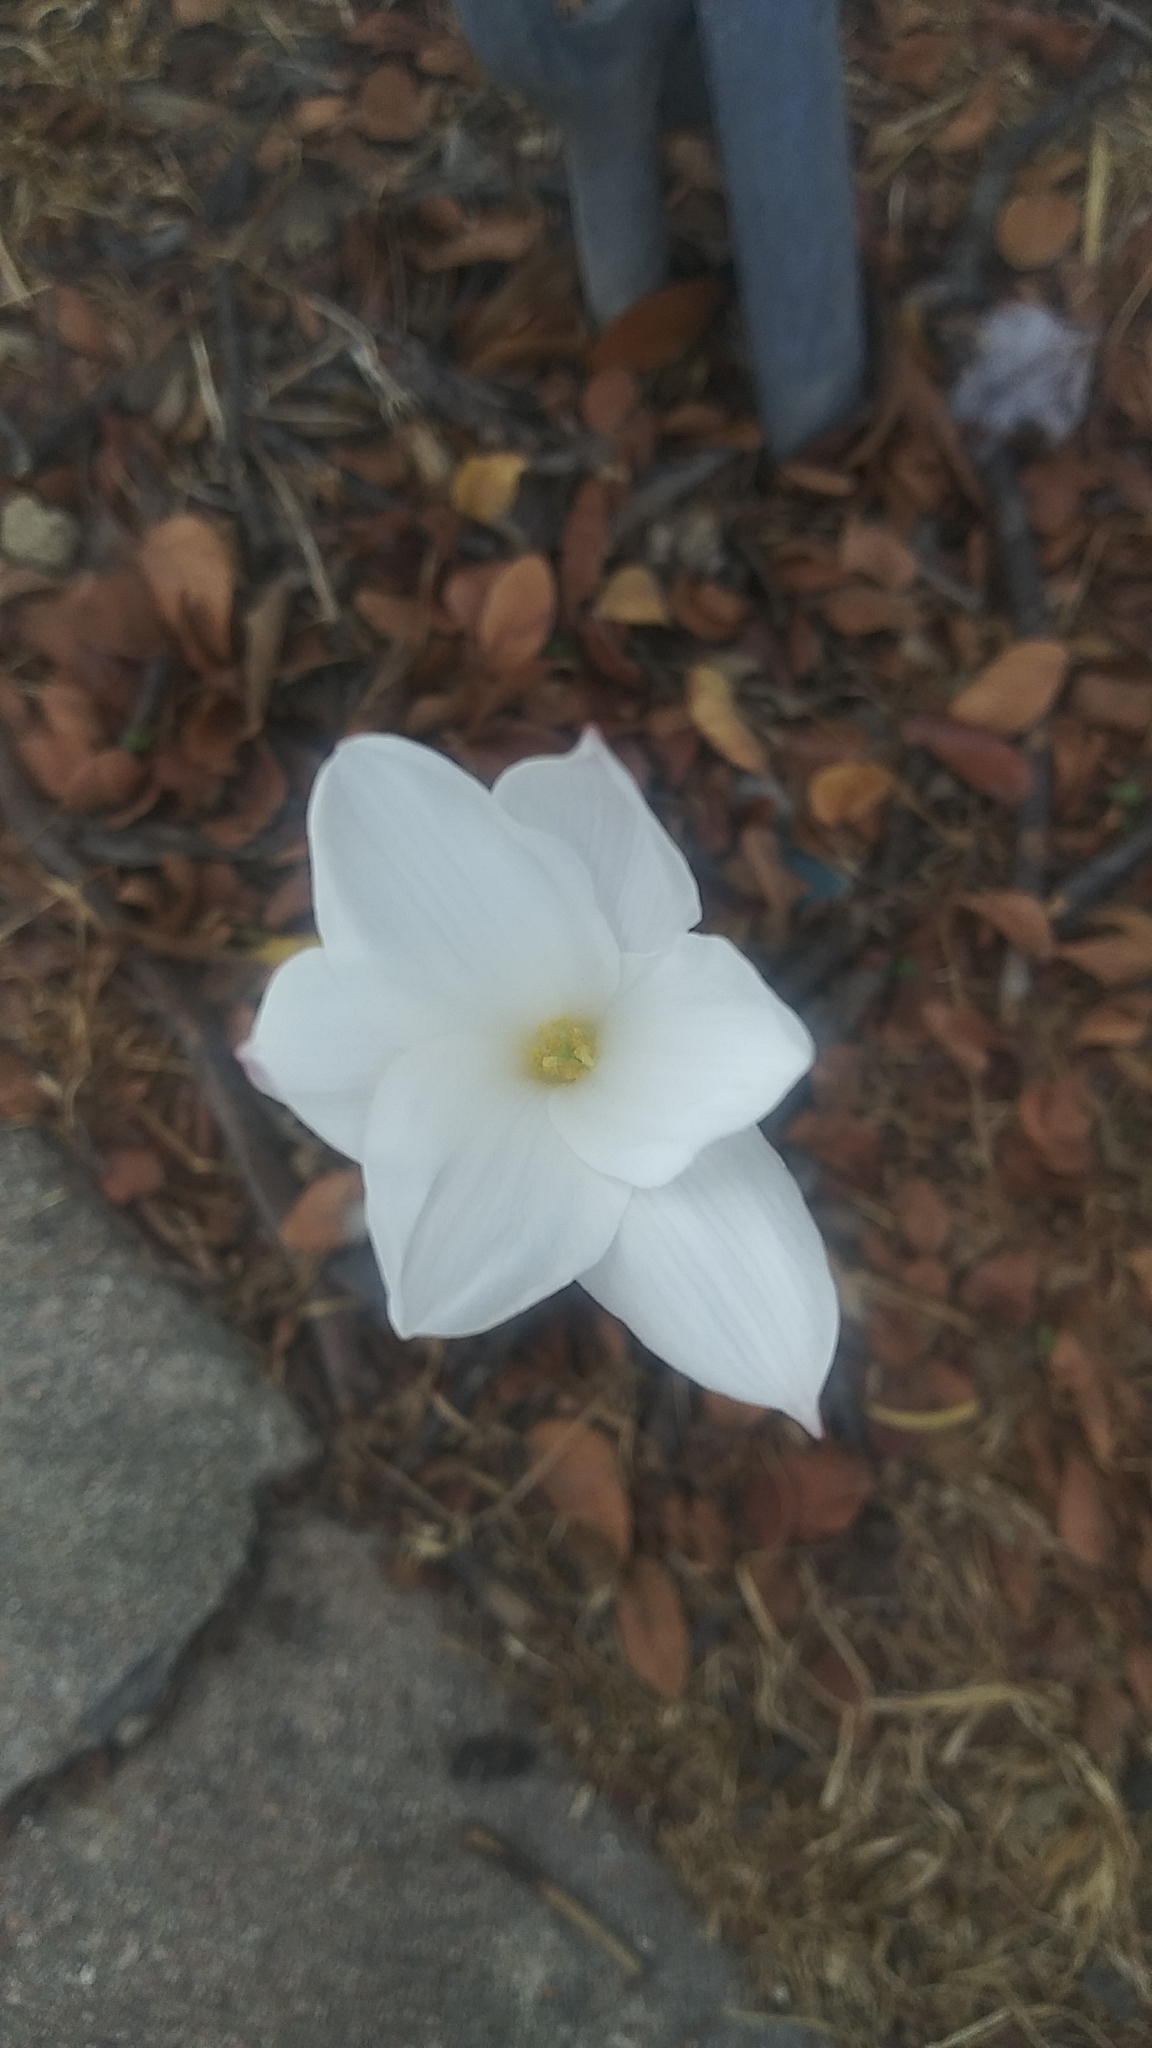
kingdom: Plantae
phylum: Tracheophyta
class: Liliopsida
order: Asparagales
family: Amaryllidaceae
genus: Zephyranthes
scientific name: Zephyranthes drummondii
